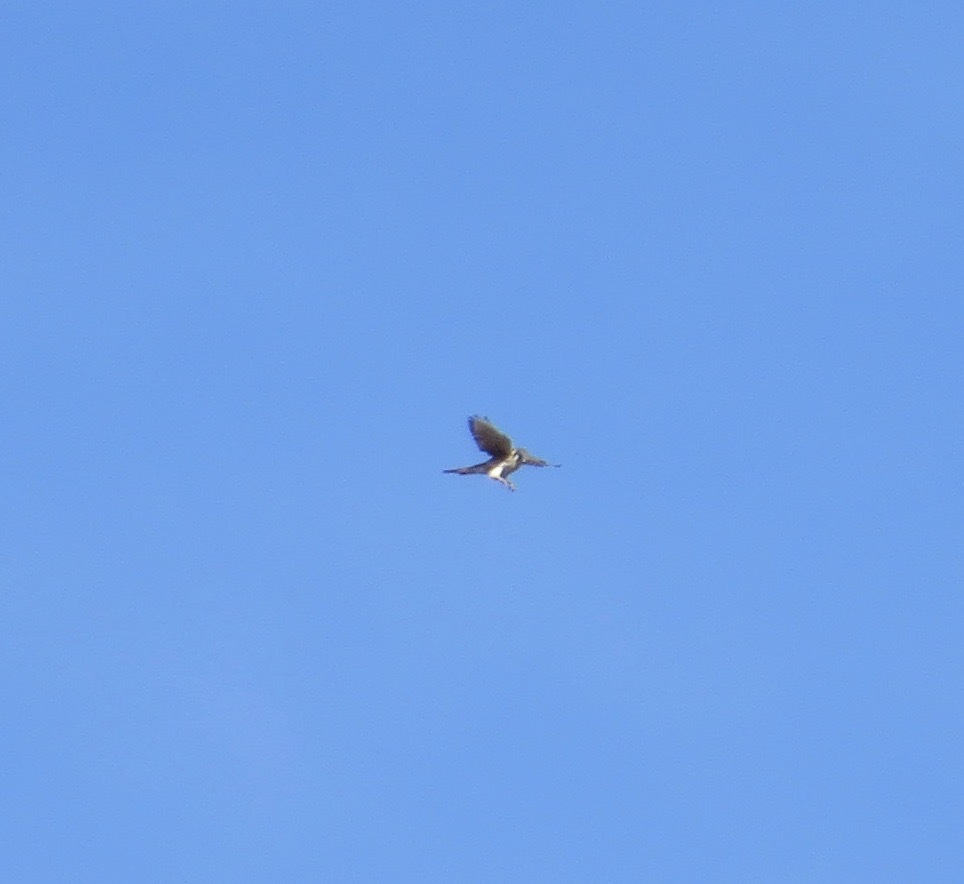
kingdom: Animalia
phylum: Chordata
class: Aves
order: Falconiformes
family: Falconidae
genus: Falco
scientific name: Falco sparverius
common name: American kestrel
